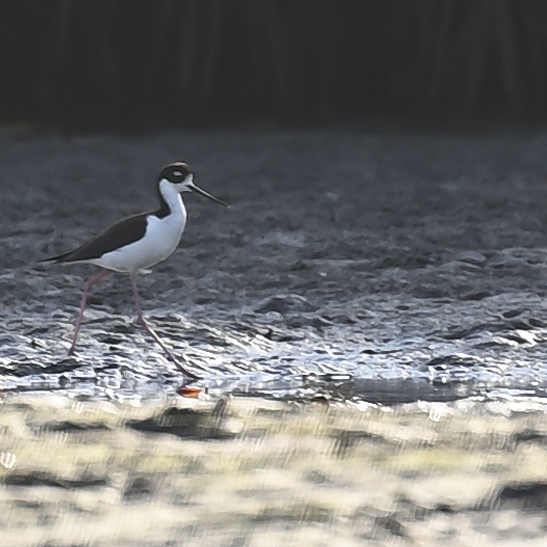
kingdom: Animalia
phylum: Chordata
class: Aves
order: Charadriiformes
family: Recurvirostridae
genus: Himantopus
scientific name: Himantopus mexicanus
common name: Black-necked stilt
